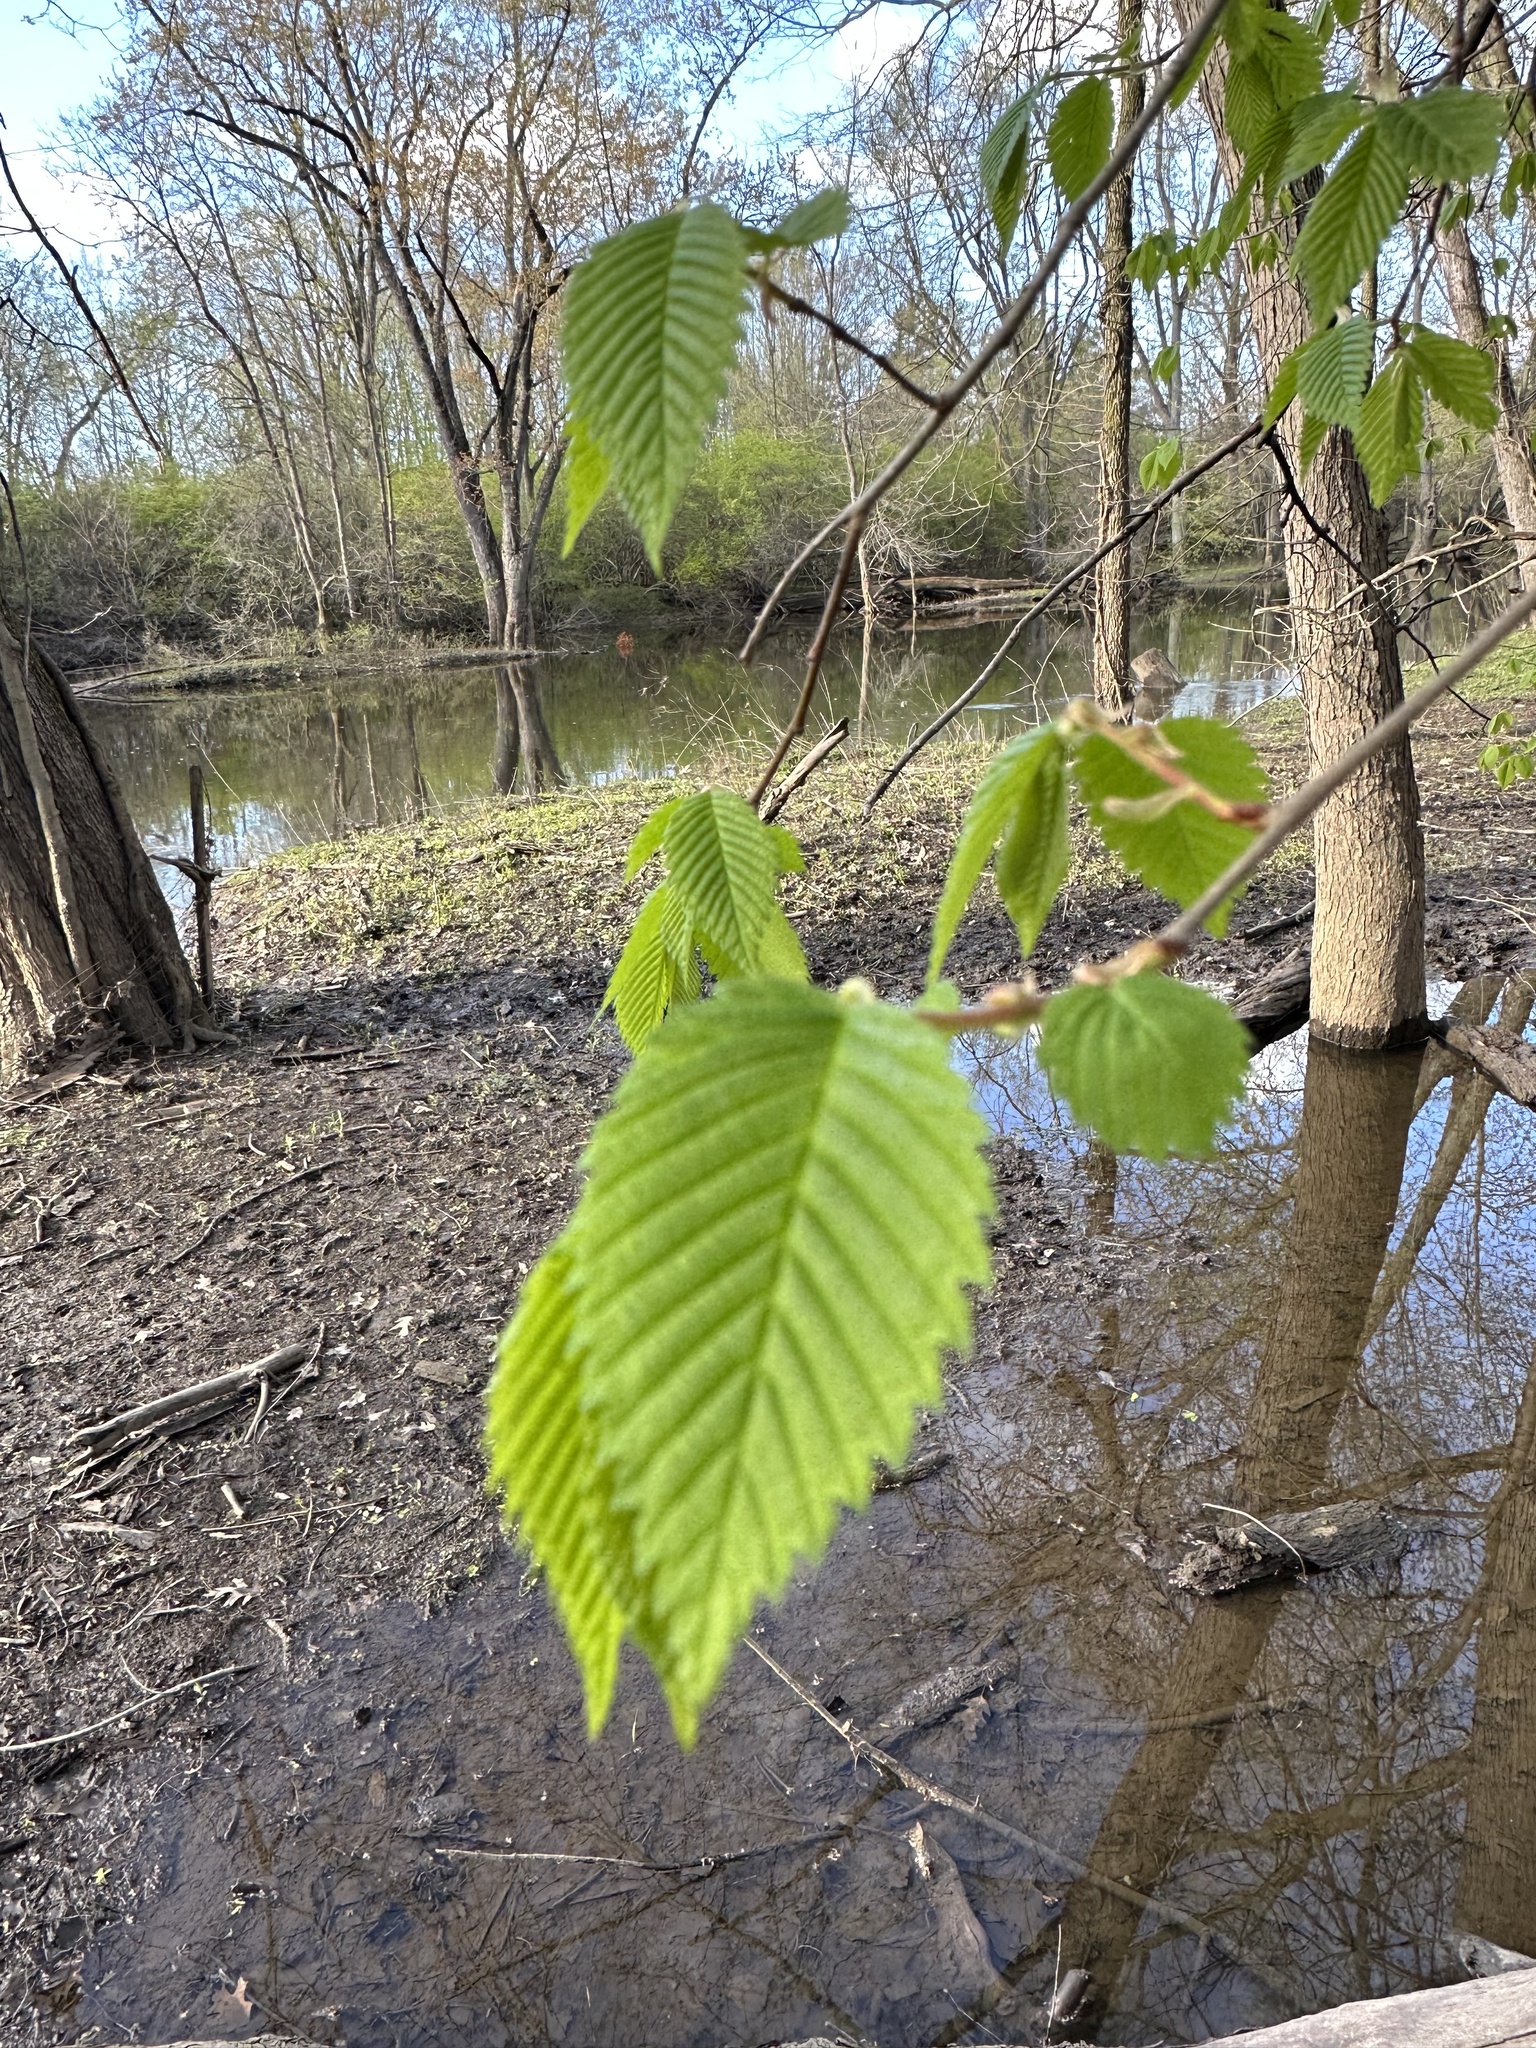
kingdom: Plantae
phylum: Tracheophyta
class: Magnoliopsida
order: Rosales
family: Ulmaceae
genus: Ulmus
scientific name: Ulmus americana
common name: American elm
